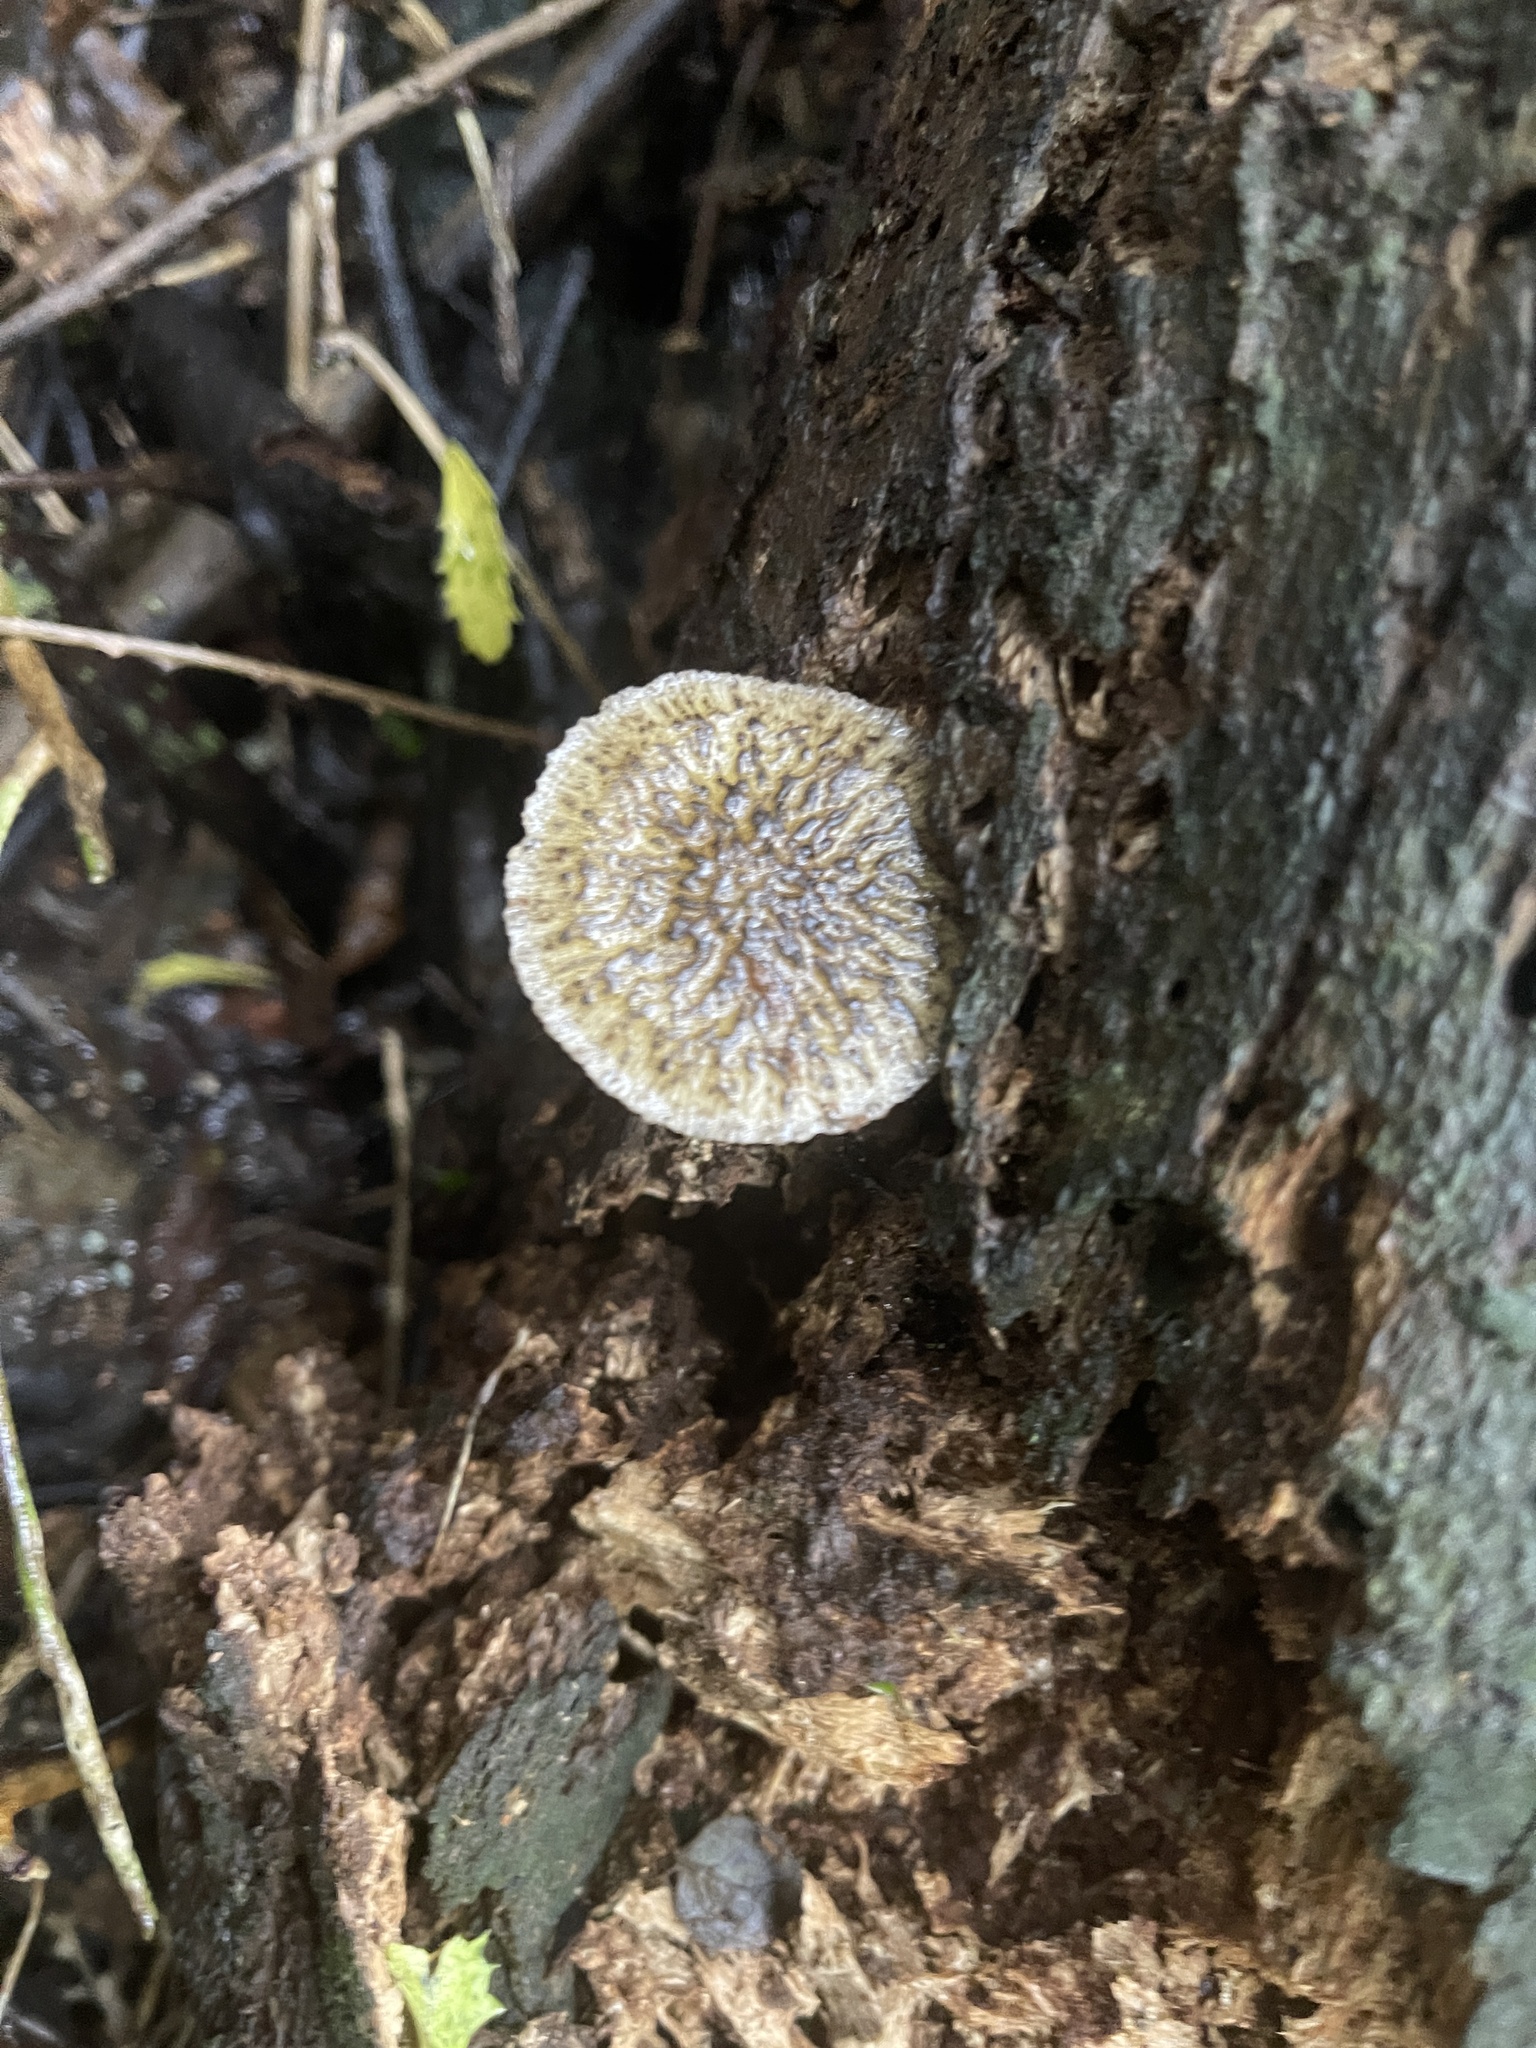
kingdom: Fungi
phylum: Basidiomycota
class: Agaricomycetes
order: Agaricales
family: Bolbitiaceae
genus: Bolbitius
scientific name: Bolbitius muscicola
